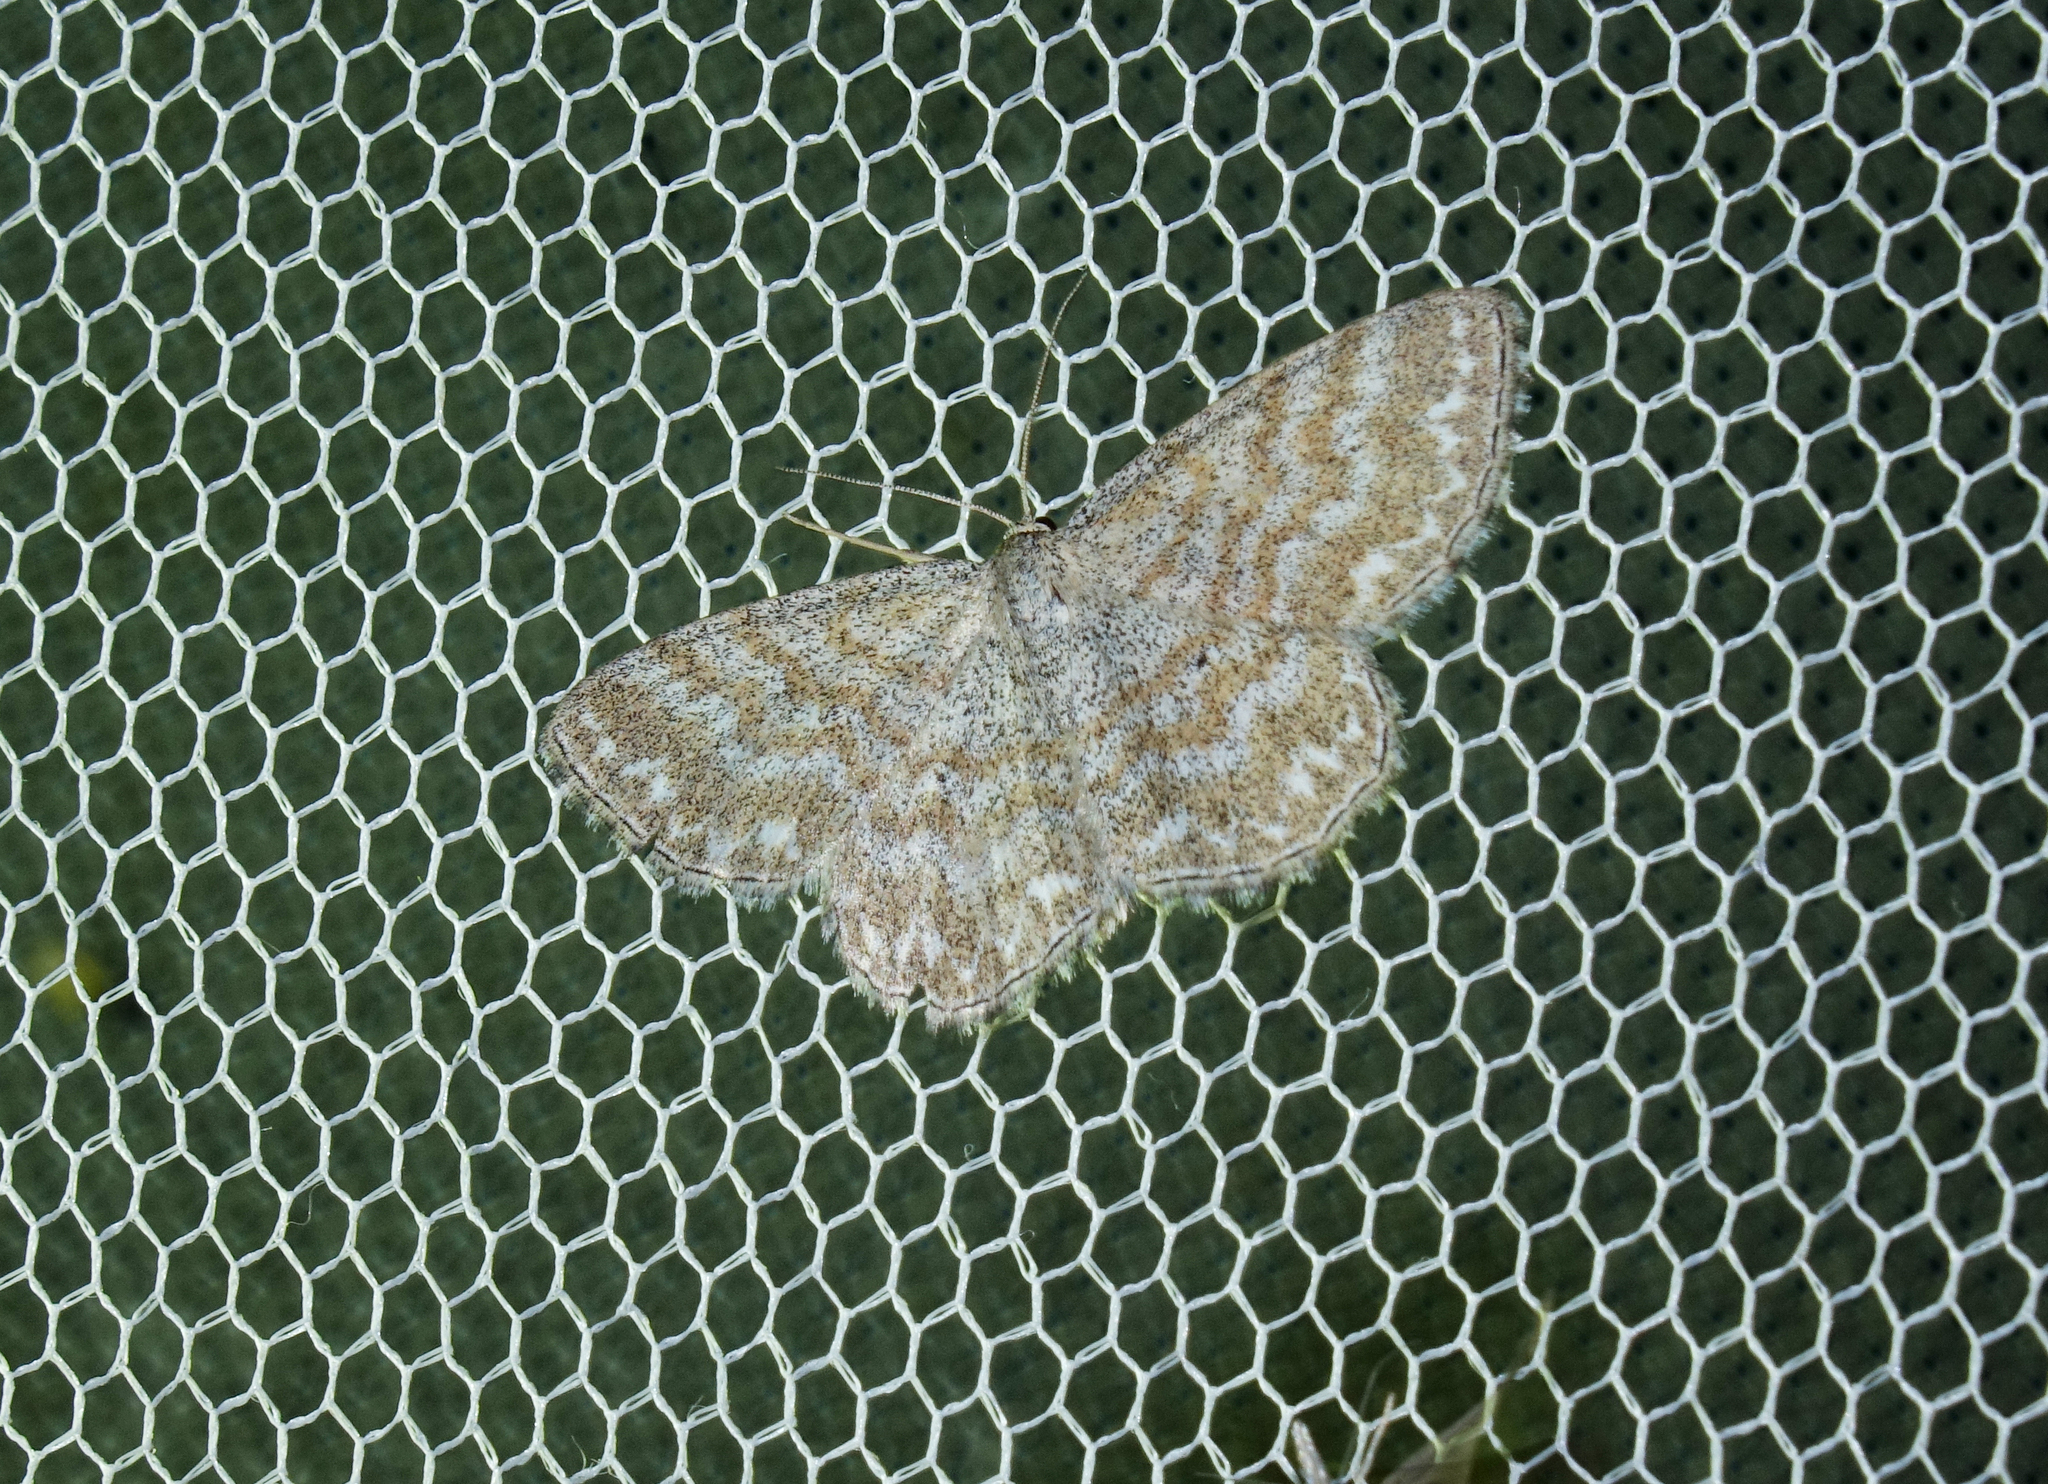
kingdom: Animalia
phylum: Arthropoda
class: Insecta
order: Lepidoptera
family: Geometridae
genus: Scopula
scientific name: Scopula immorata
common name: Lewes wave
